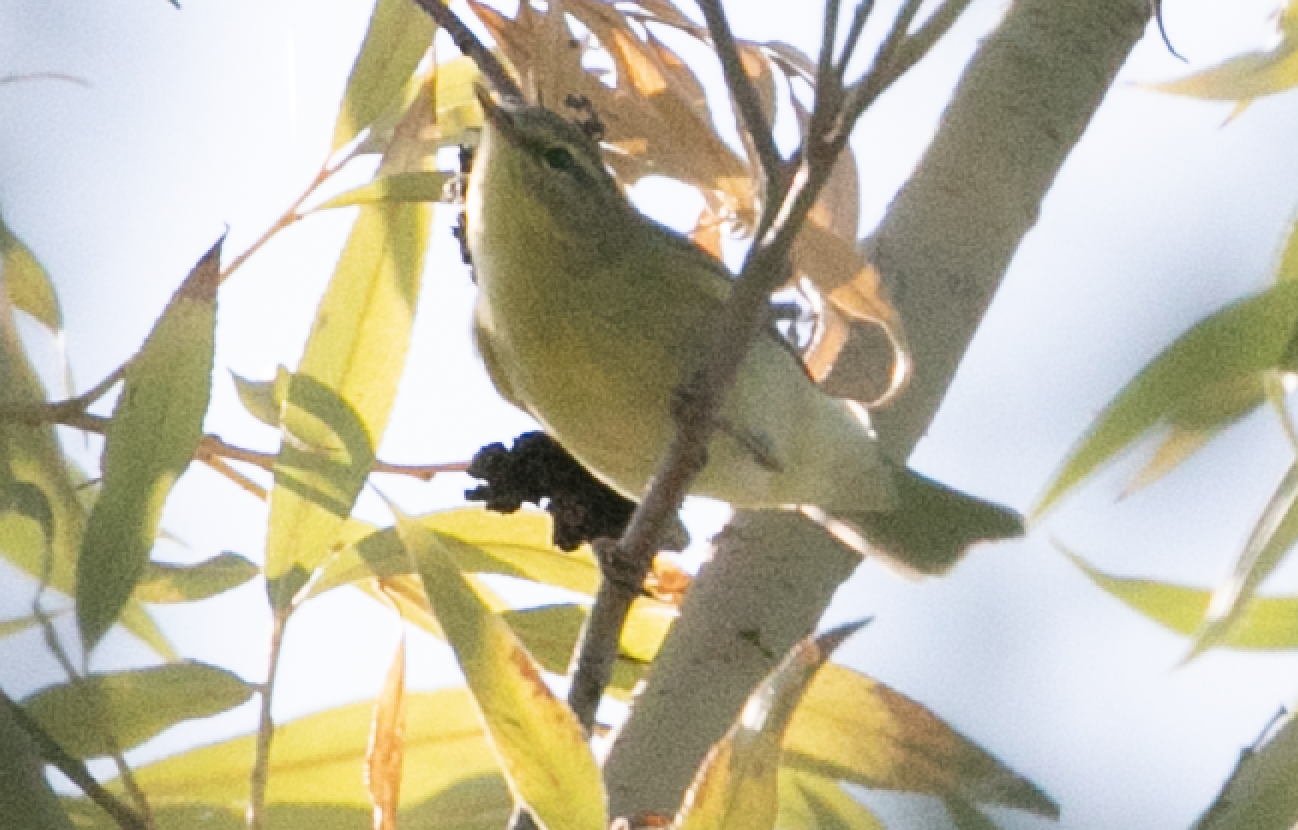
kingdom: Animalia
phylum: Chordata
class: Aves
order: Passeriformes
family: Phylloscopidae
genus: Phylloscopus
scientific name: Phylloscopus trochilus
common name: Willow warbler
